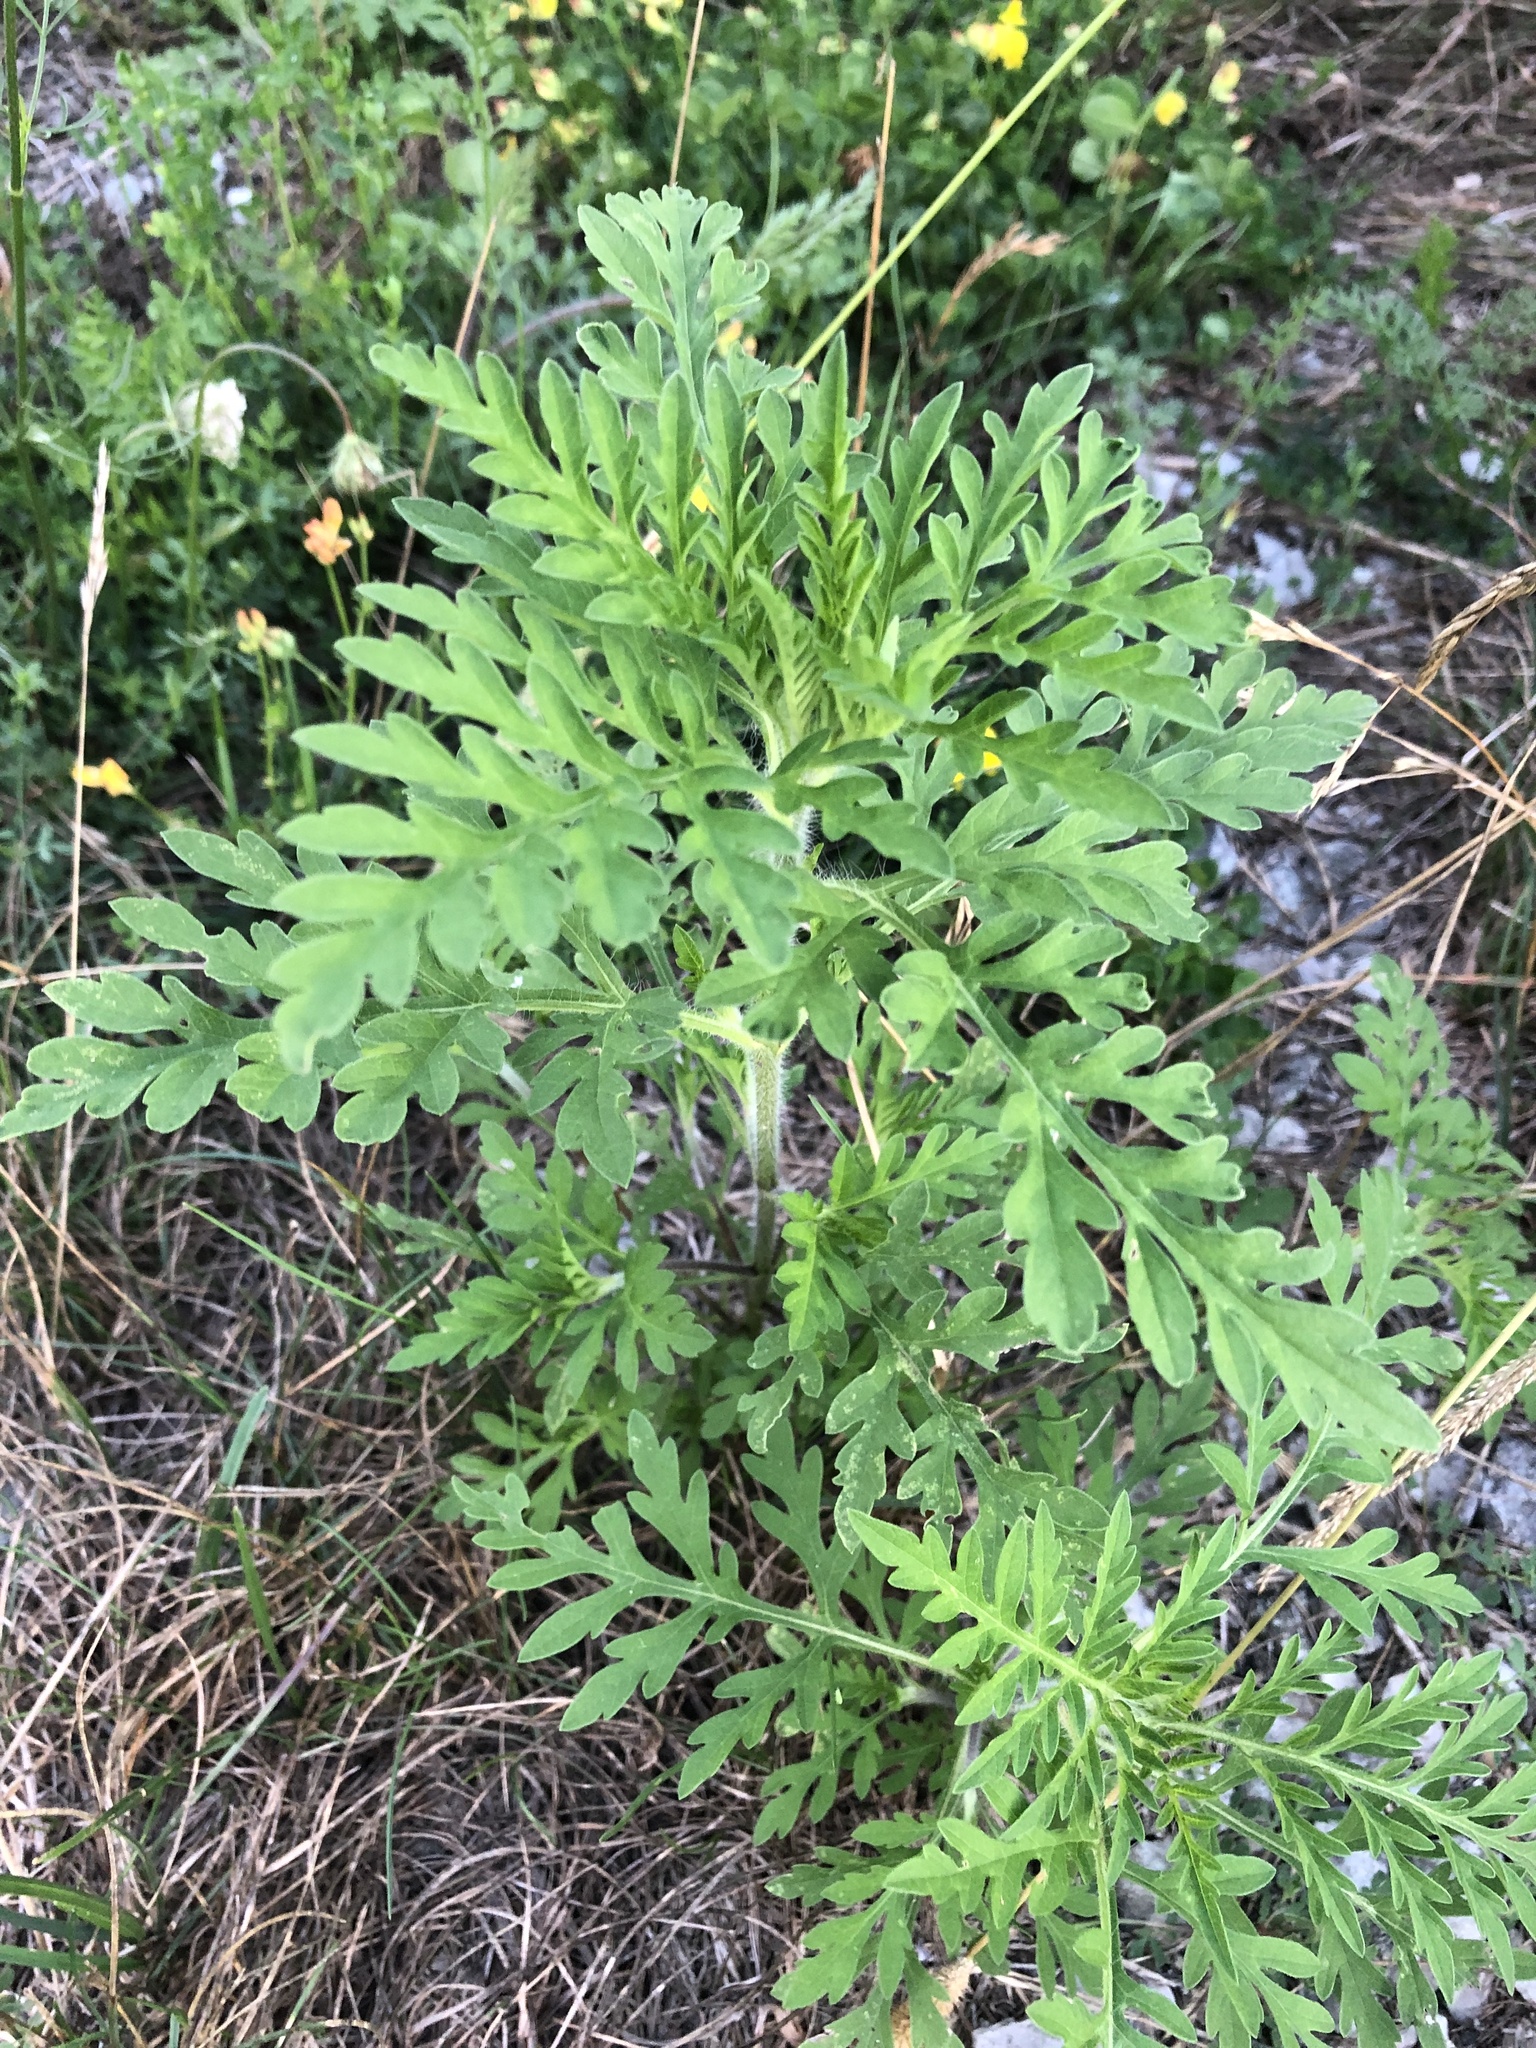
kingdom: Plantae
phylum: Tracheophyta
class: Magnoliopsida
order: Asterales
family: Asteraceae
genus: Ambrosia
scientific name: Ambrosia artemisiifolia
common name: Annual ragweed
